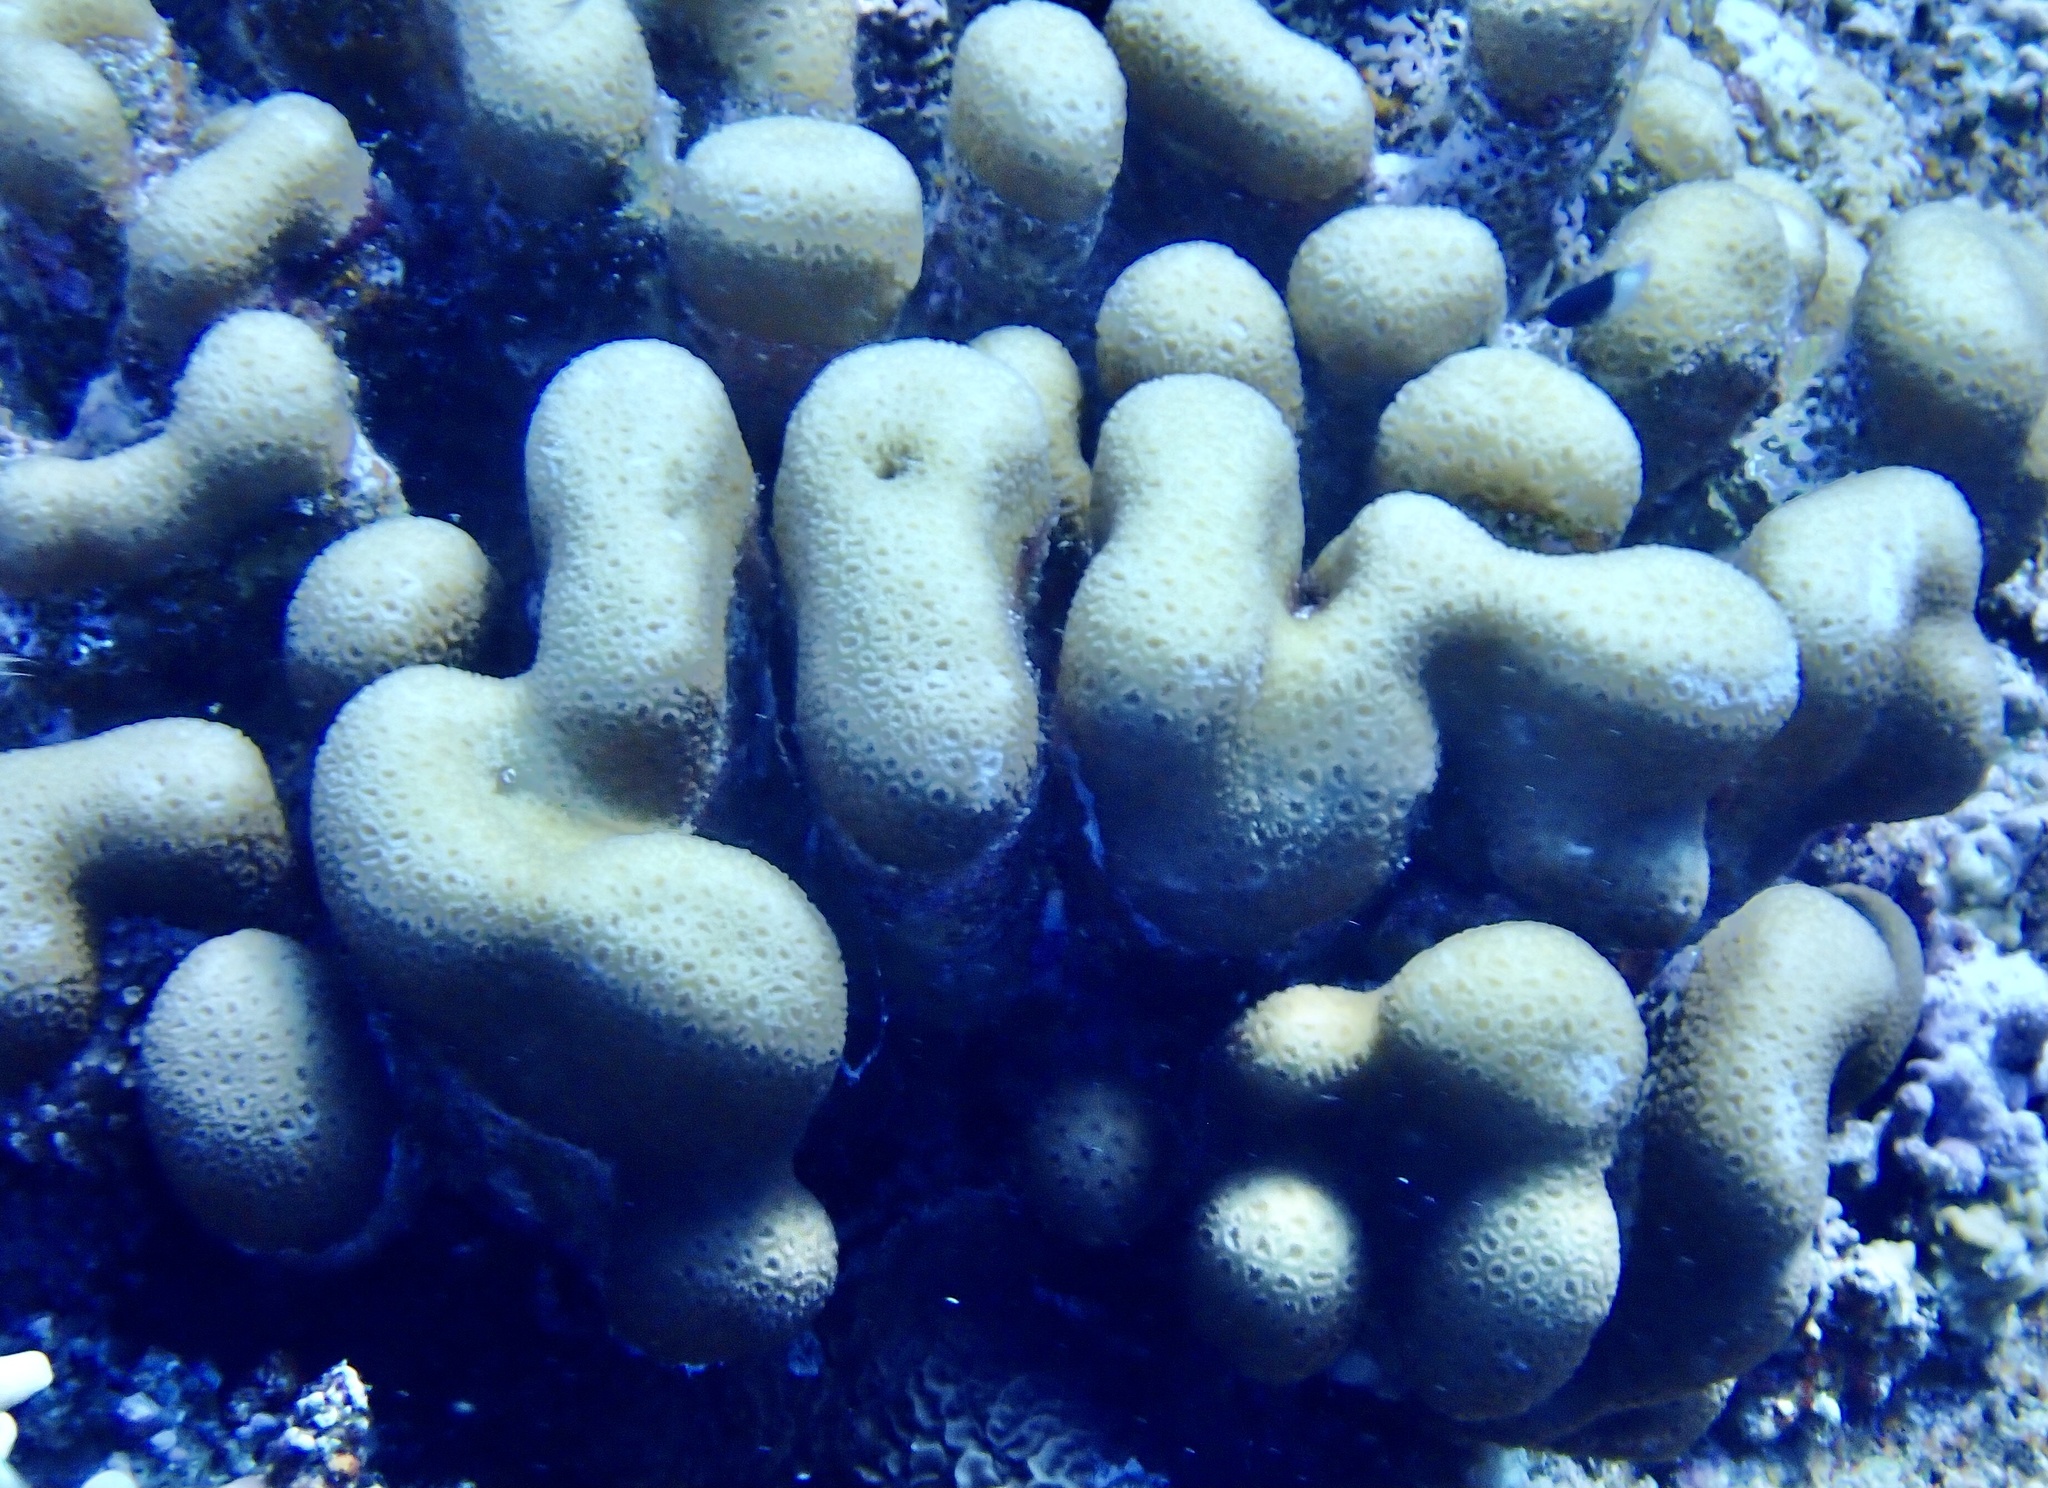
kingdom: Animalia
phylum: Cnidaria
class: Anthozoa
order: Scleractinia
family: Merulinidae
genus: Goniastrea
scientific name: Goniastrea stelligera
